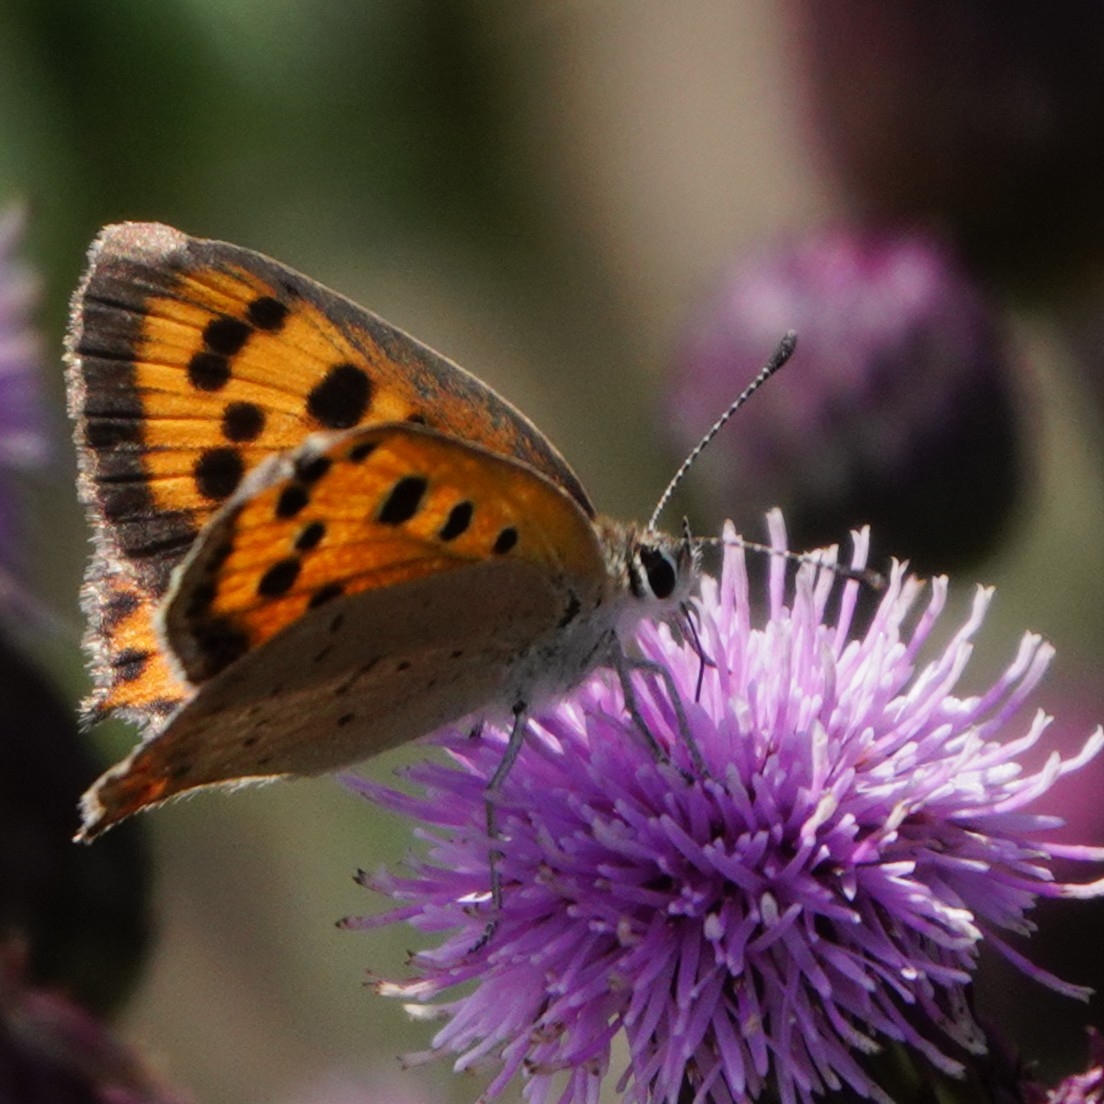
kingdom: Animalia
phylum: Arthropoda
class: Insecta
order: Lepidoptera
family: Lycaenidae
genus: Lycaena
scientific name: Lycaena phlaeas
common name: Small copper
